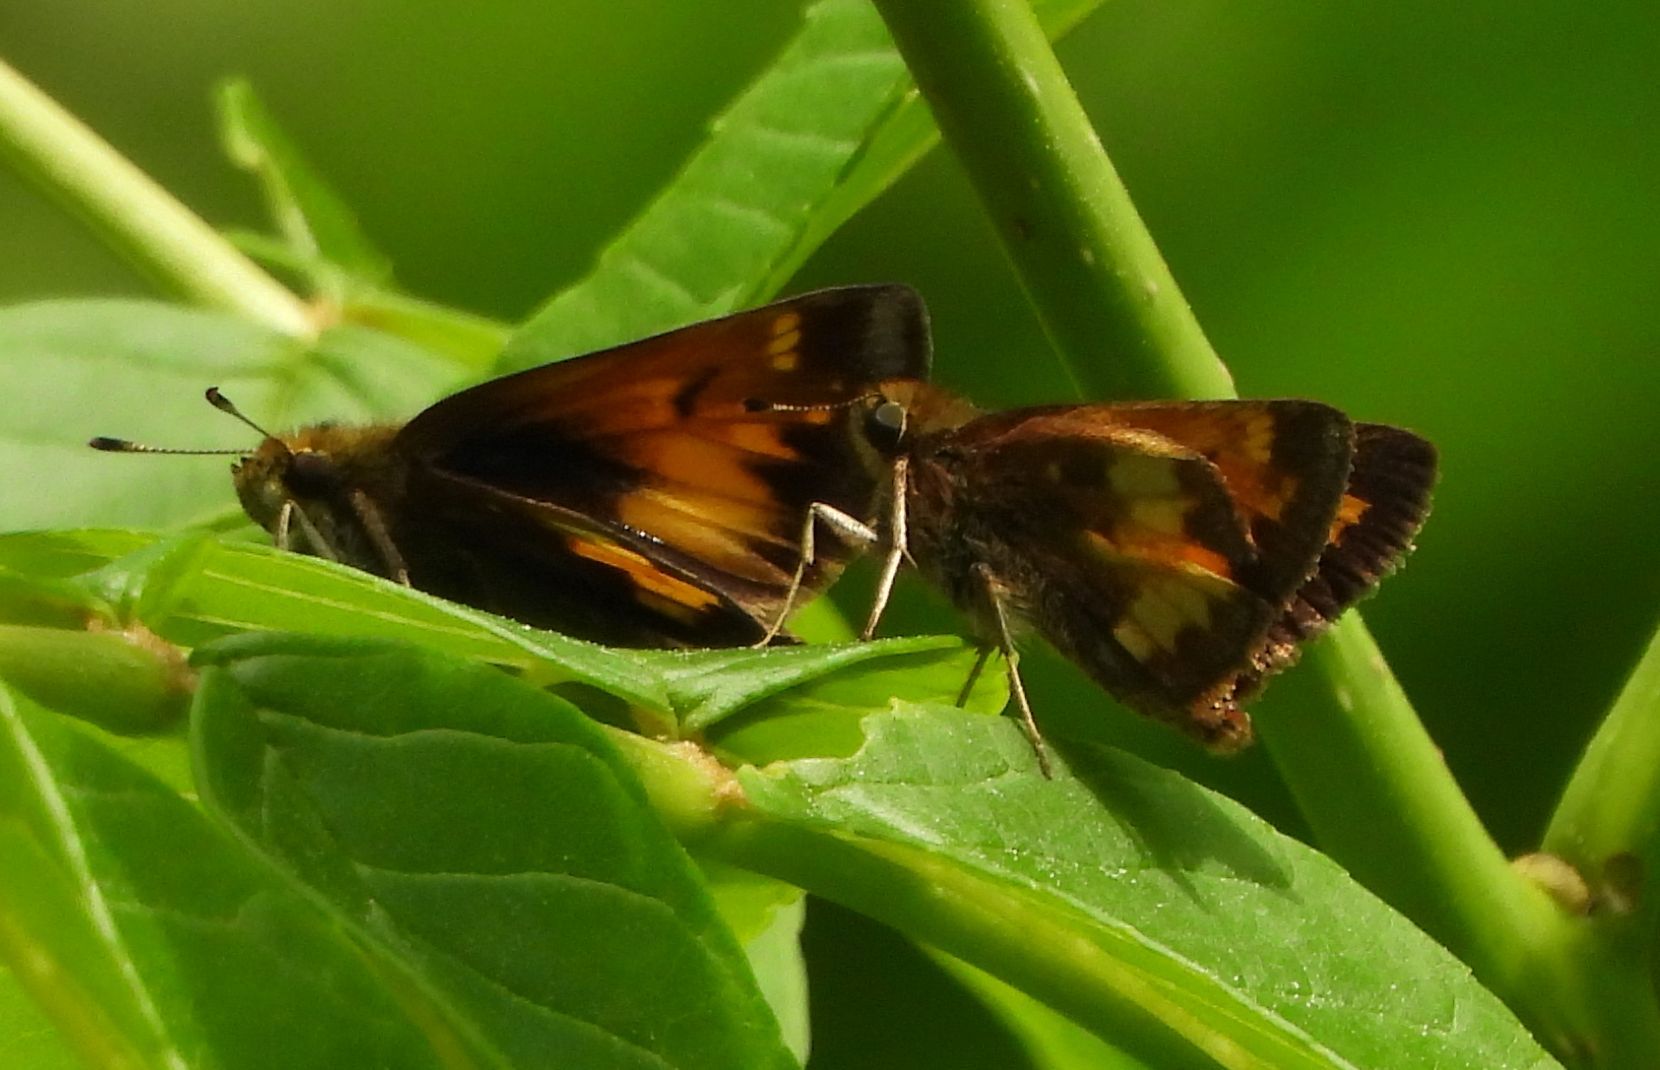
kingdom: Animalia
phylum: Arthropoda
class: Insecta
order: Lepidoptera
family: Hesperiidae
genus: Lon
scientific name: Lon hobomok
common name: Hobomok skipper
